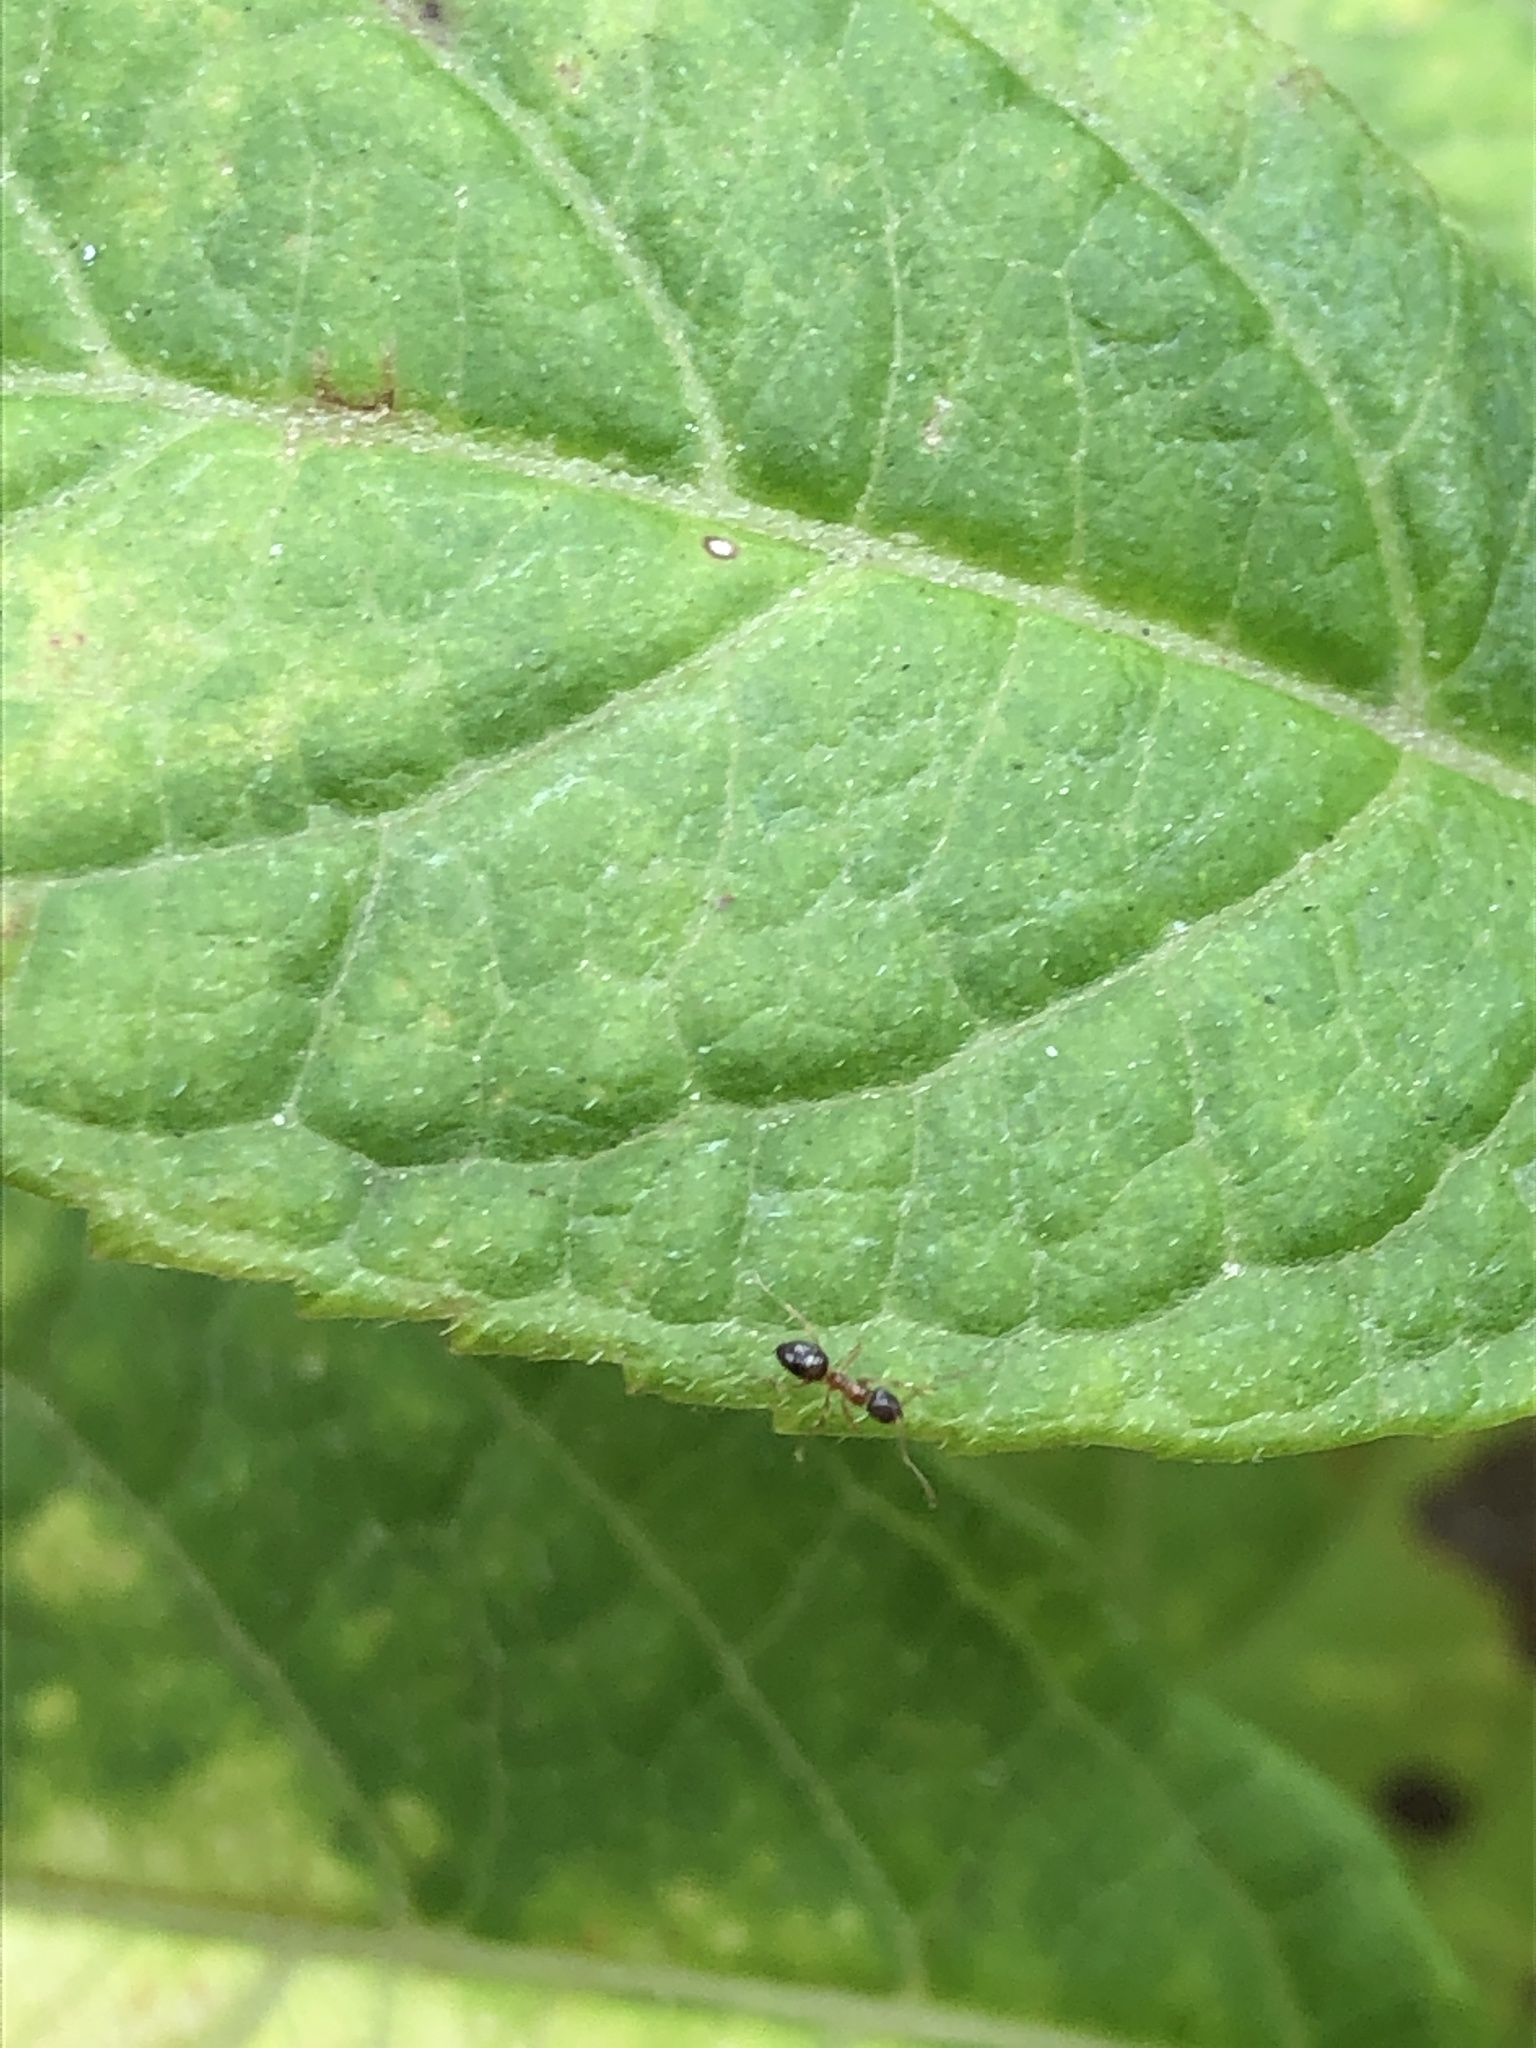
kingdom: Animalia
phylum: Arthropoda
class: Insecta
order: Hymenoptera
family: Formicidae
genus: Paratrechina
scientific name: Paratrechina flavipes
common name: Eastern asian formicine ant
